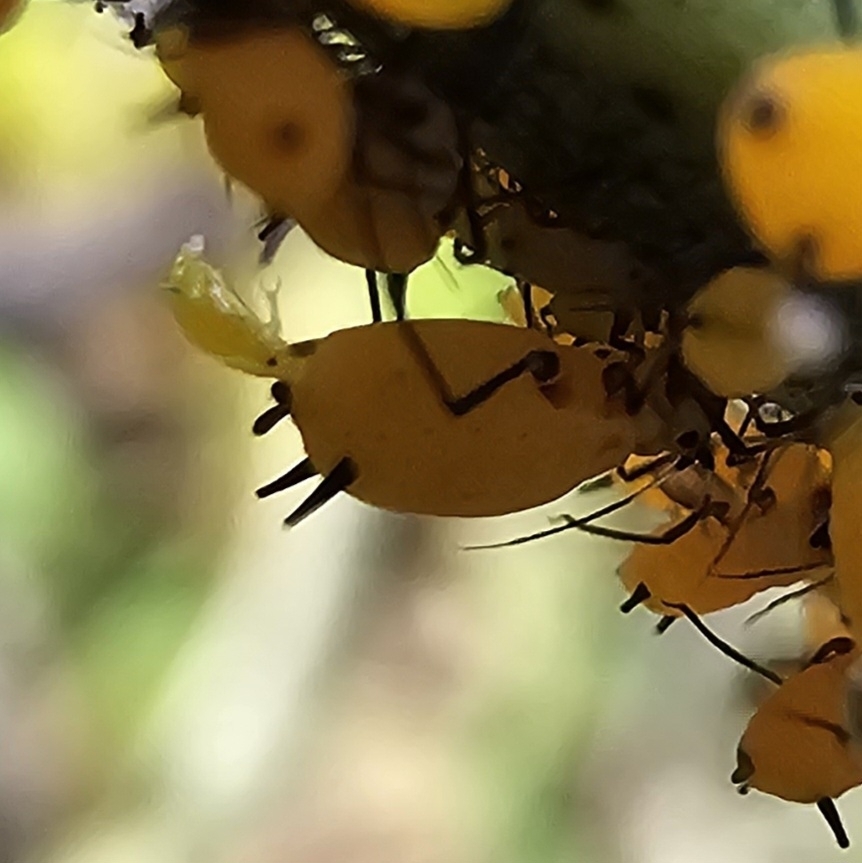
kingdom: Animalia
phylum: Arthropoda
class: Insecta
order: Hemiptera
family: Aphididae
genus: Aphis
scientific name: Aphis nerii
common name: Oleander aphid
